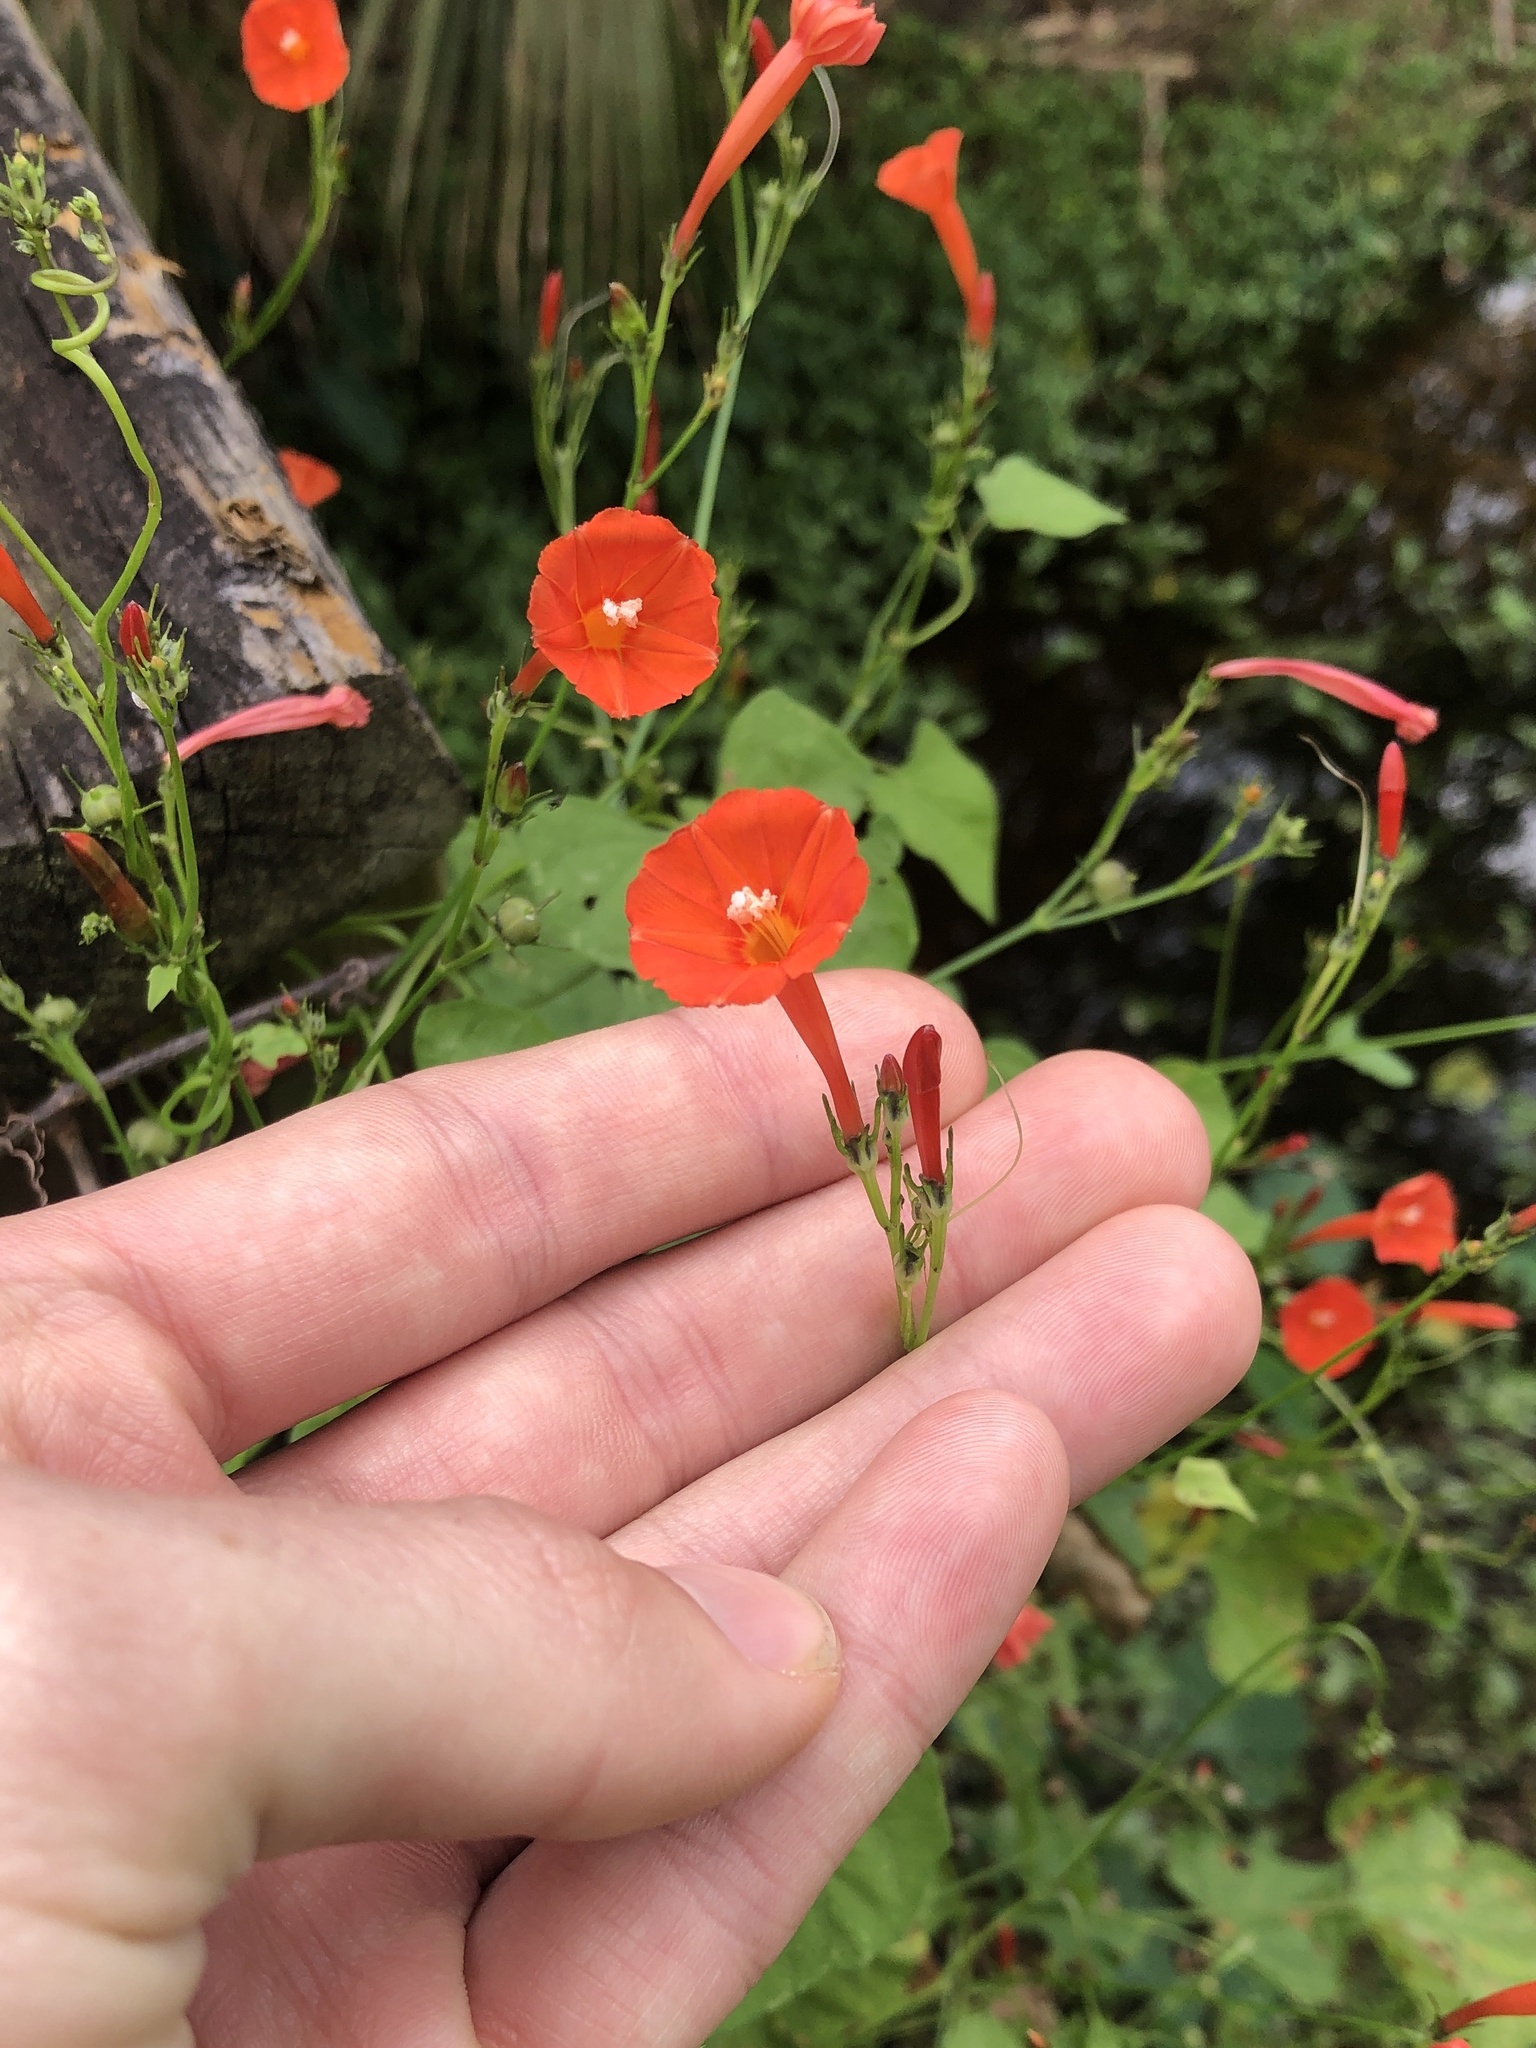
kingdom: Plantae
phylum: Tracheophyta
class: Magnoliopsida
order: Solanales
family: Convolvulaceae
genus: Ipomoea
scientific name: Ipomoea hederifolia
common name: Ivy-leaf morning-glory
